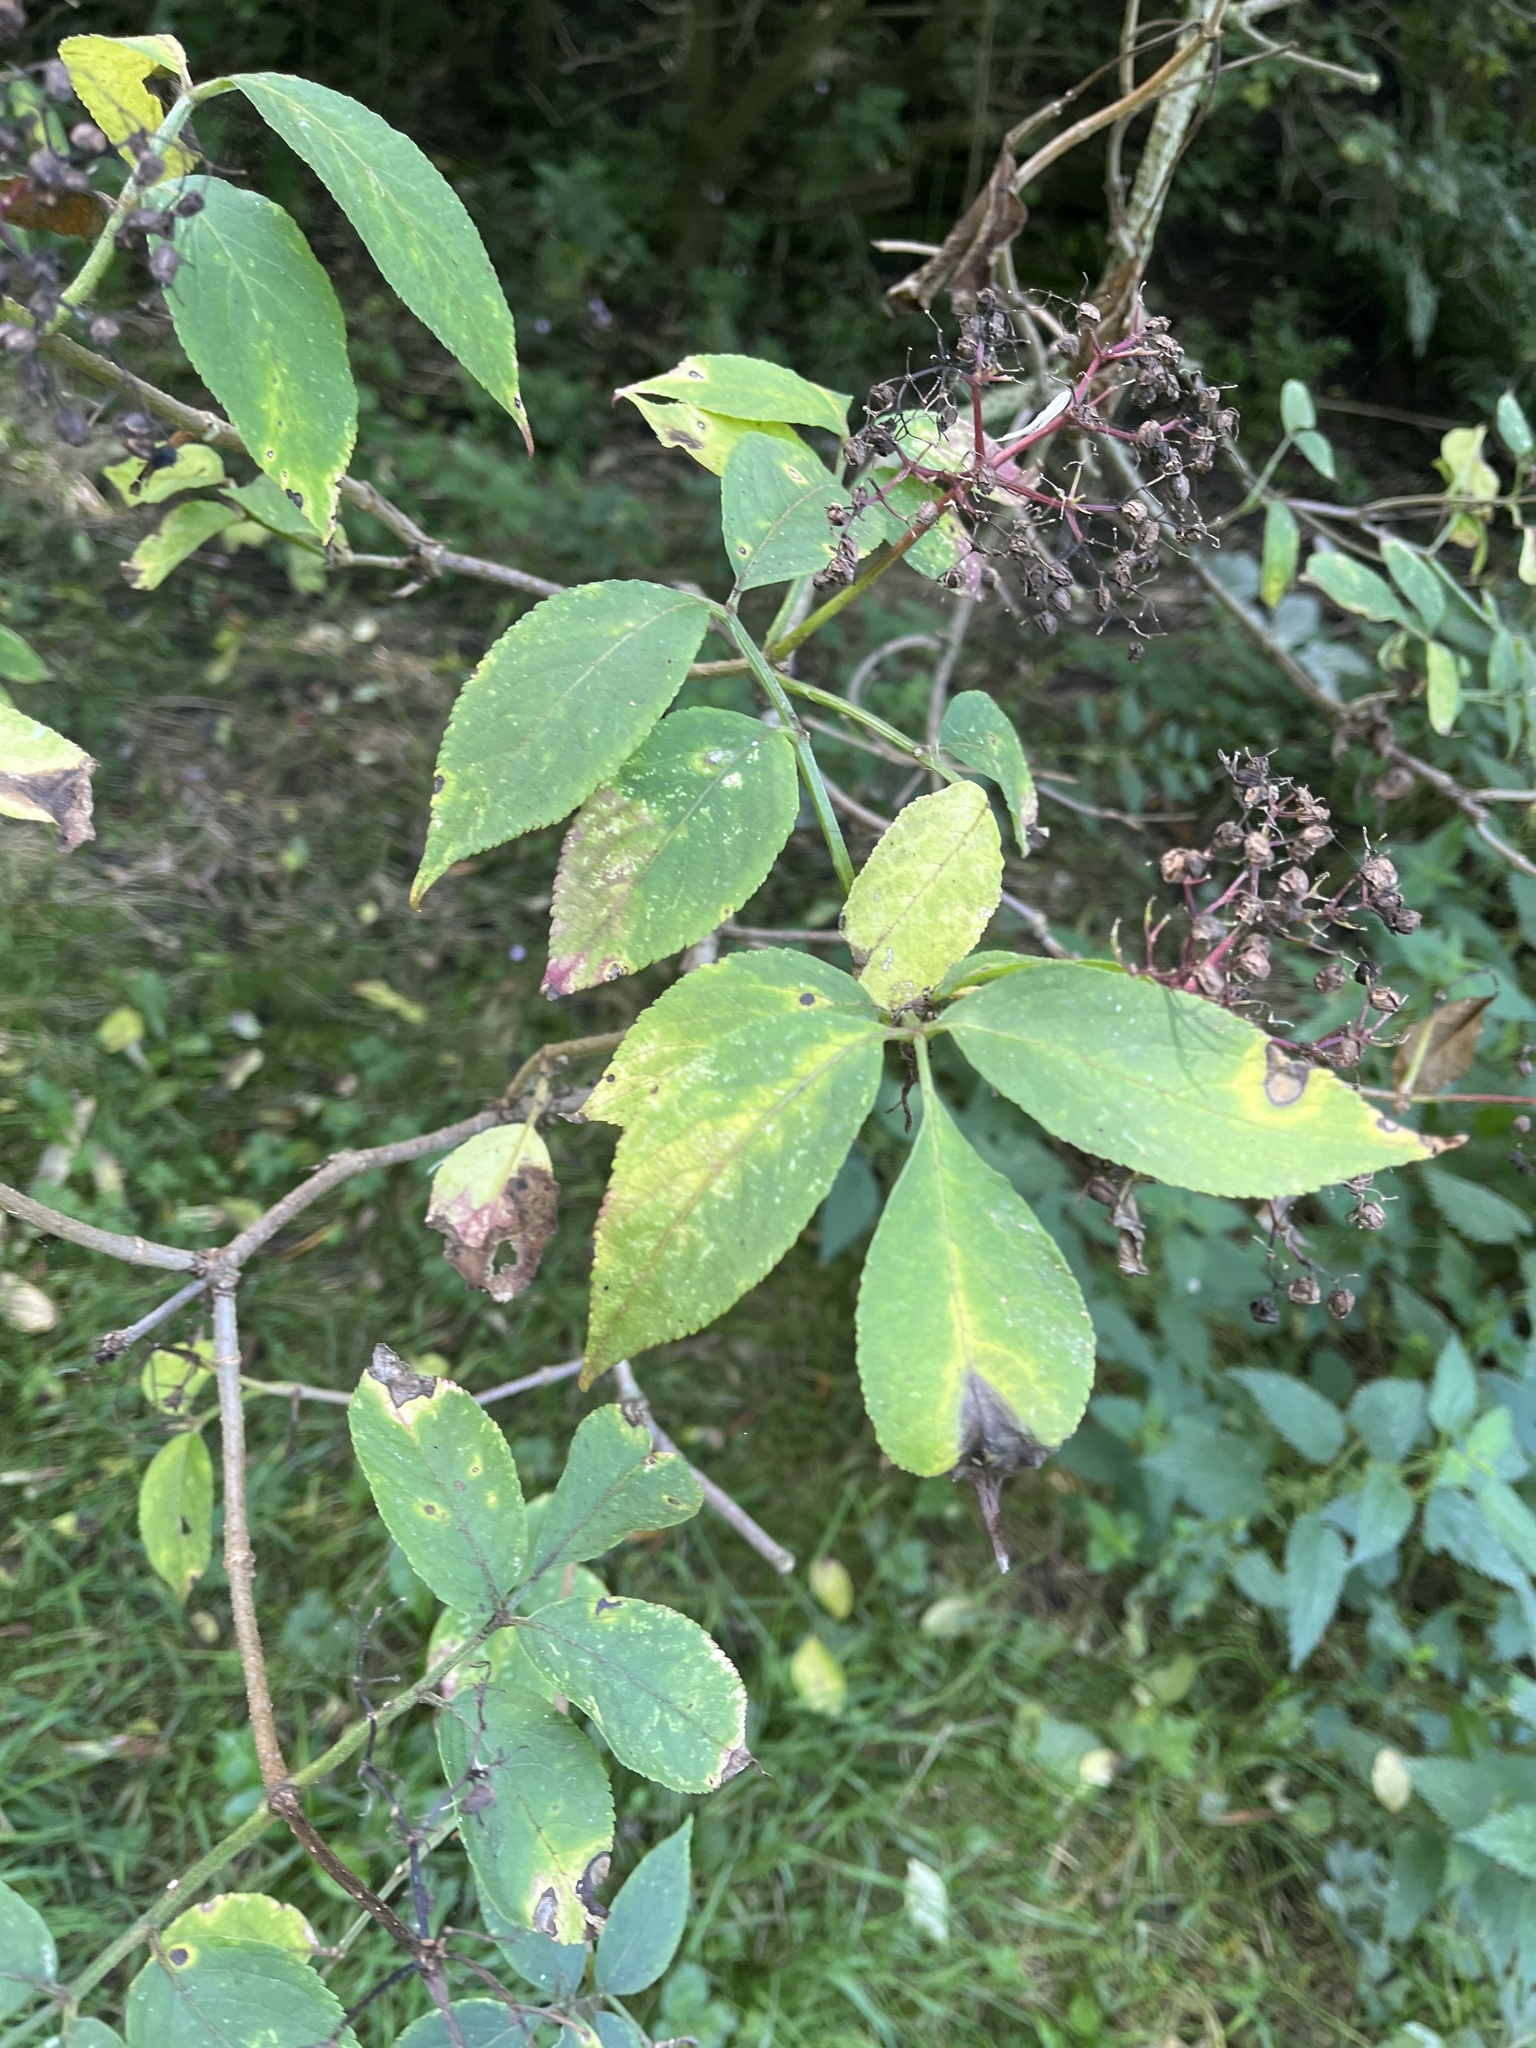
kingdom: Plantae
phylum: Tracheophyta
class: Magnoliopsida
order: Dipsacales
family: Viburnaceae
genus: Sambucus
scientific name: Sambucus nigra
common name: Elder
